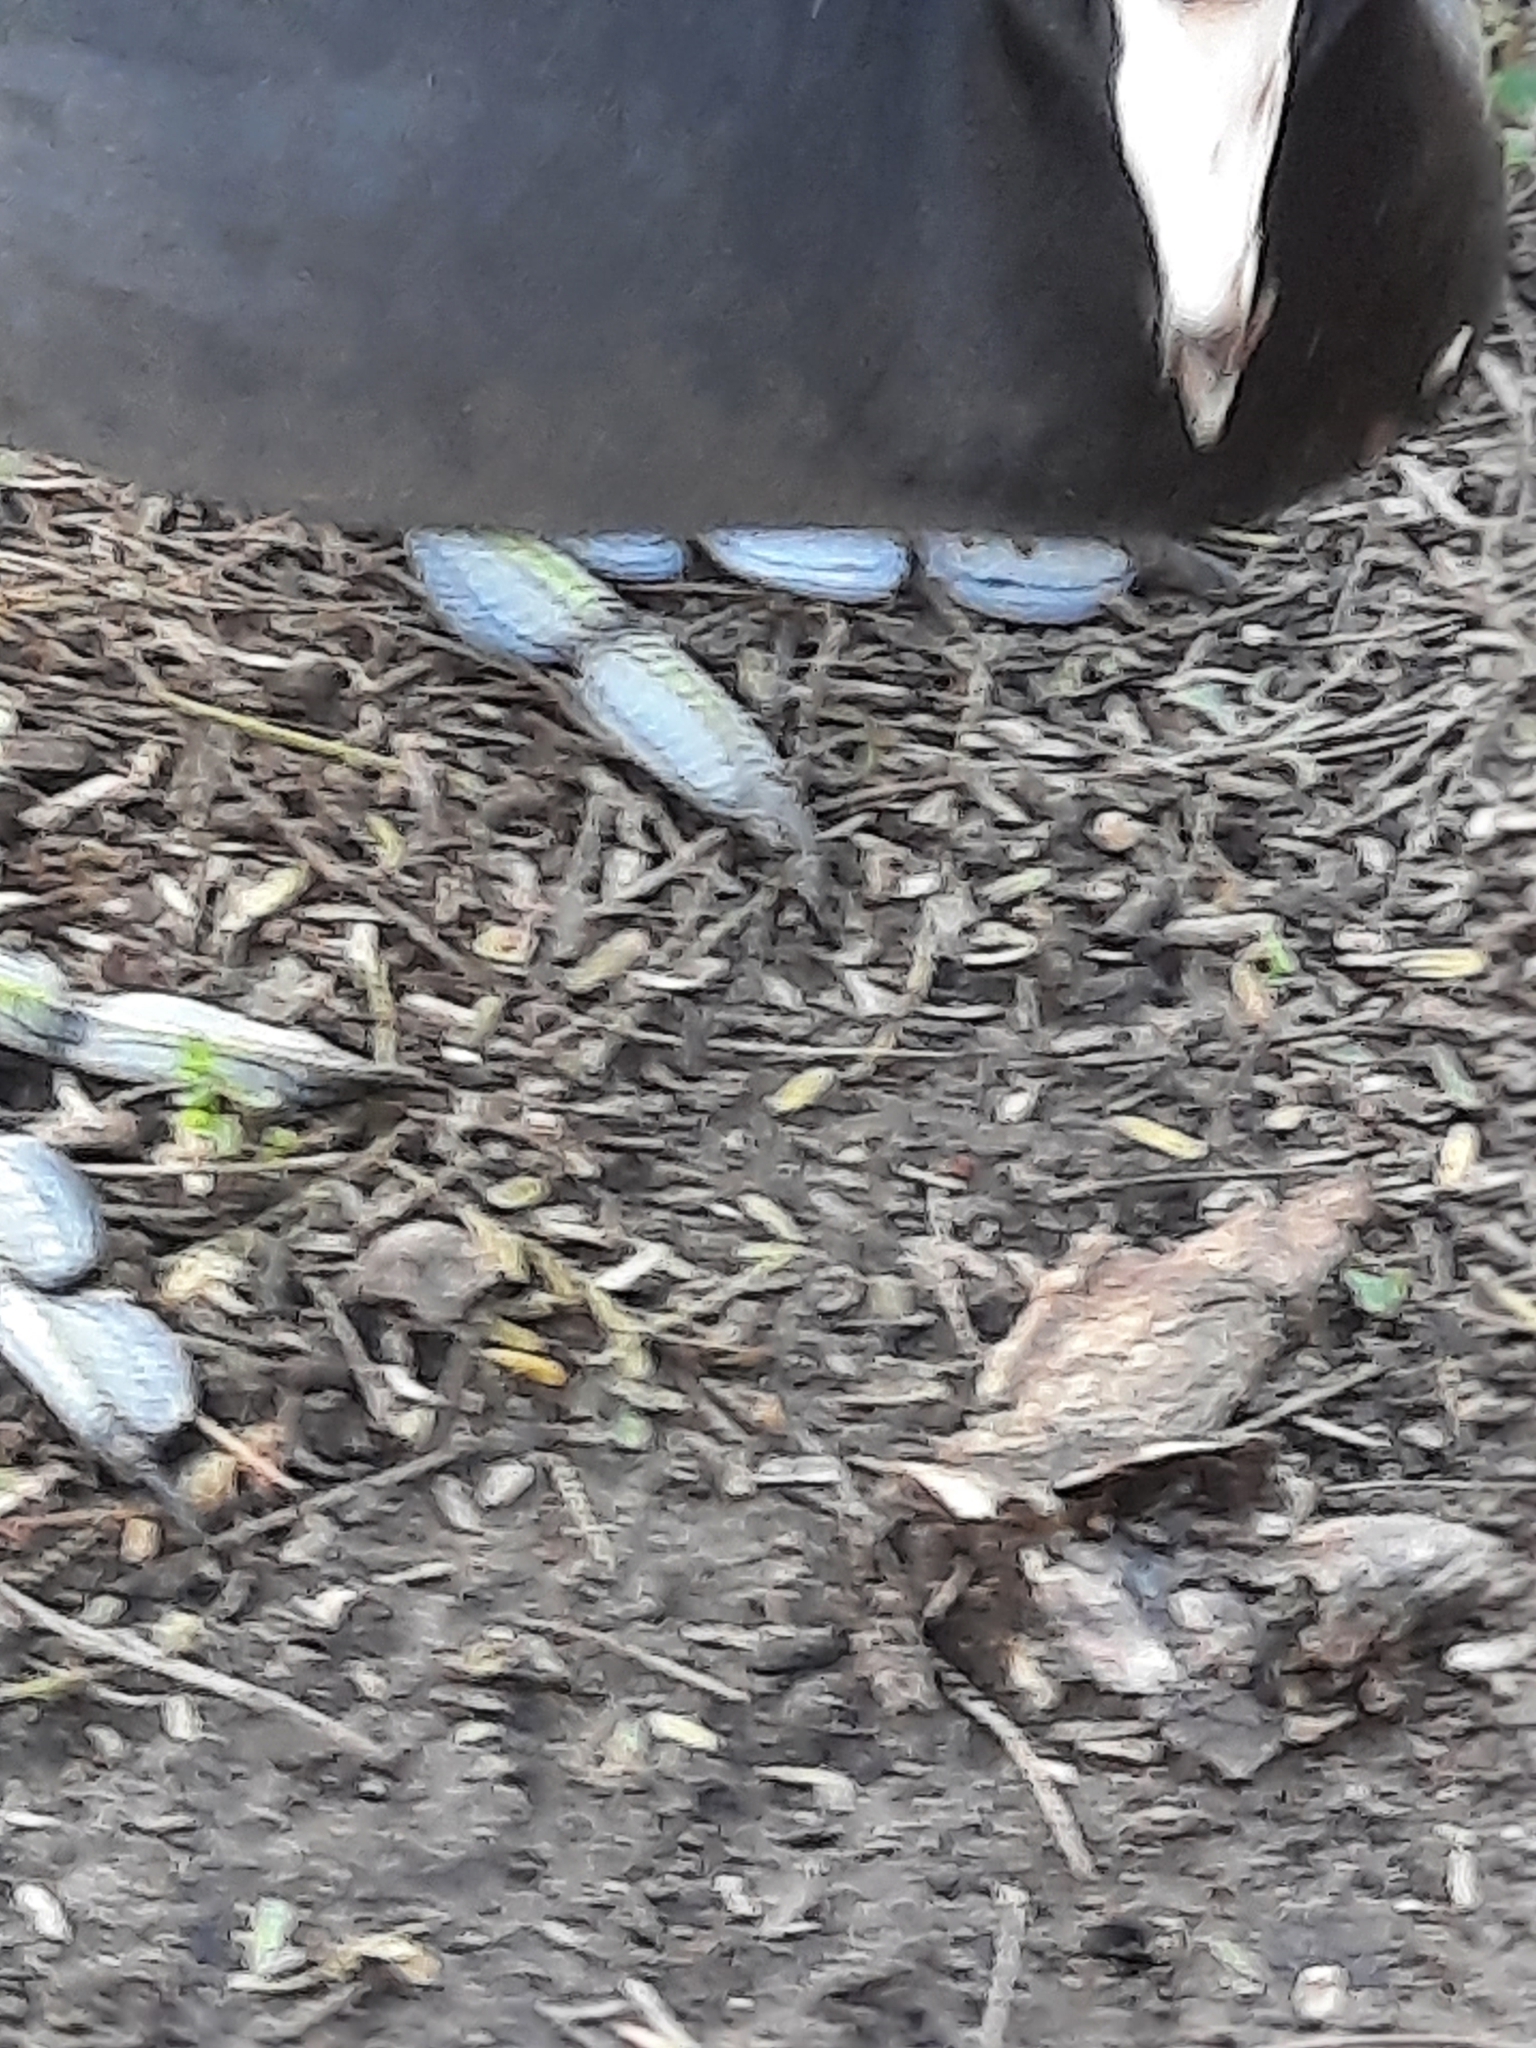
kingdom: Animalia
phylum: Chordata
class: Aves
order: Gruiformes
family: Rallidae
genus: Fulica
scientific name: Fulica americana
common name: American coot
